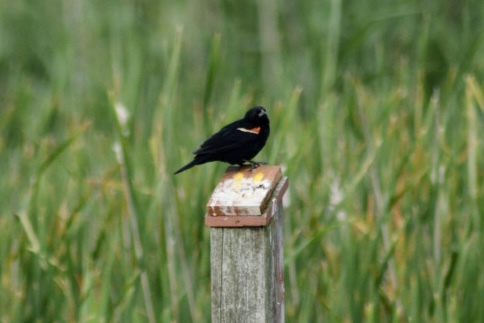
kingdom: Animalia
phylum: Chordata
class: Aves
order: Passeriformes
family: Icteridae
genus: Agelaius
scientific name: Agelaius phoeniceus
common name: Red-winged blackbird
